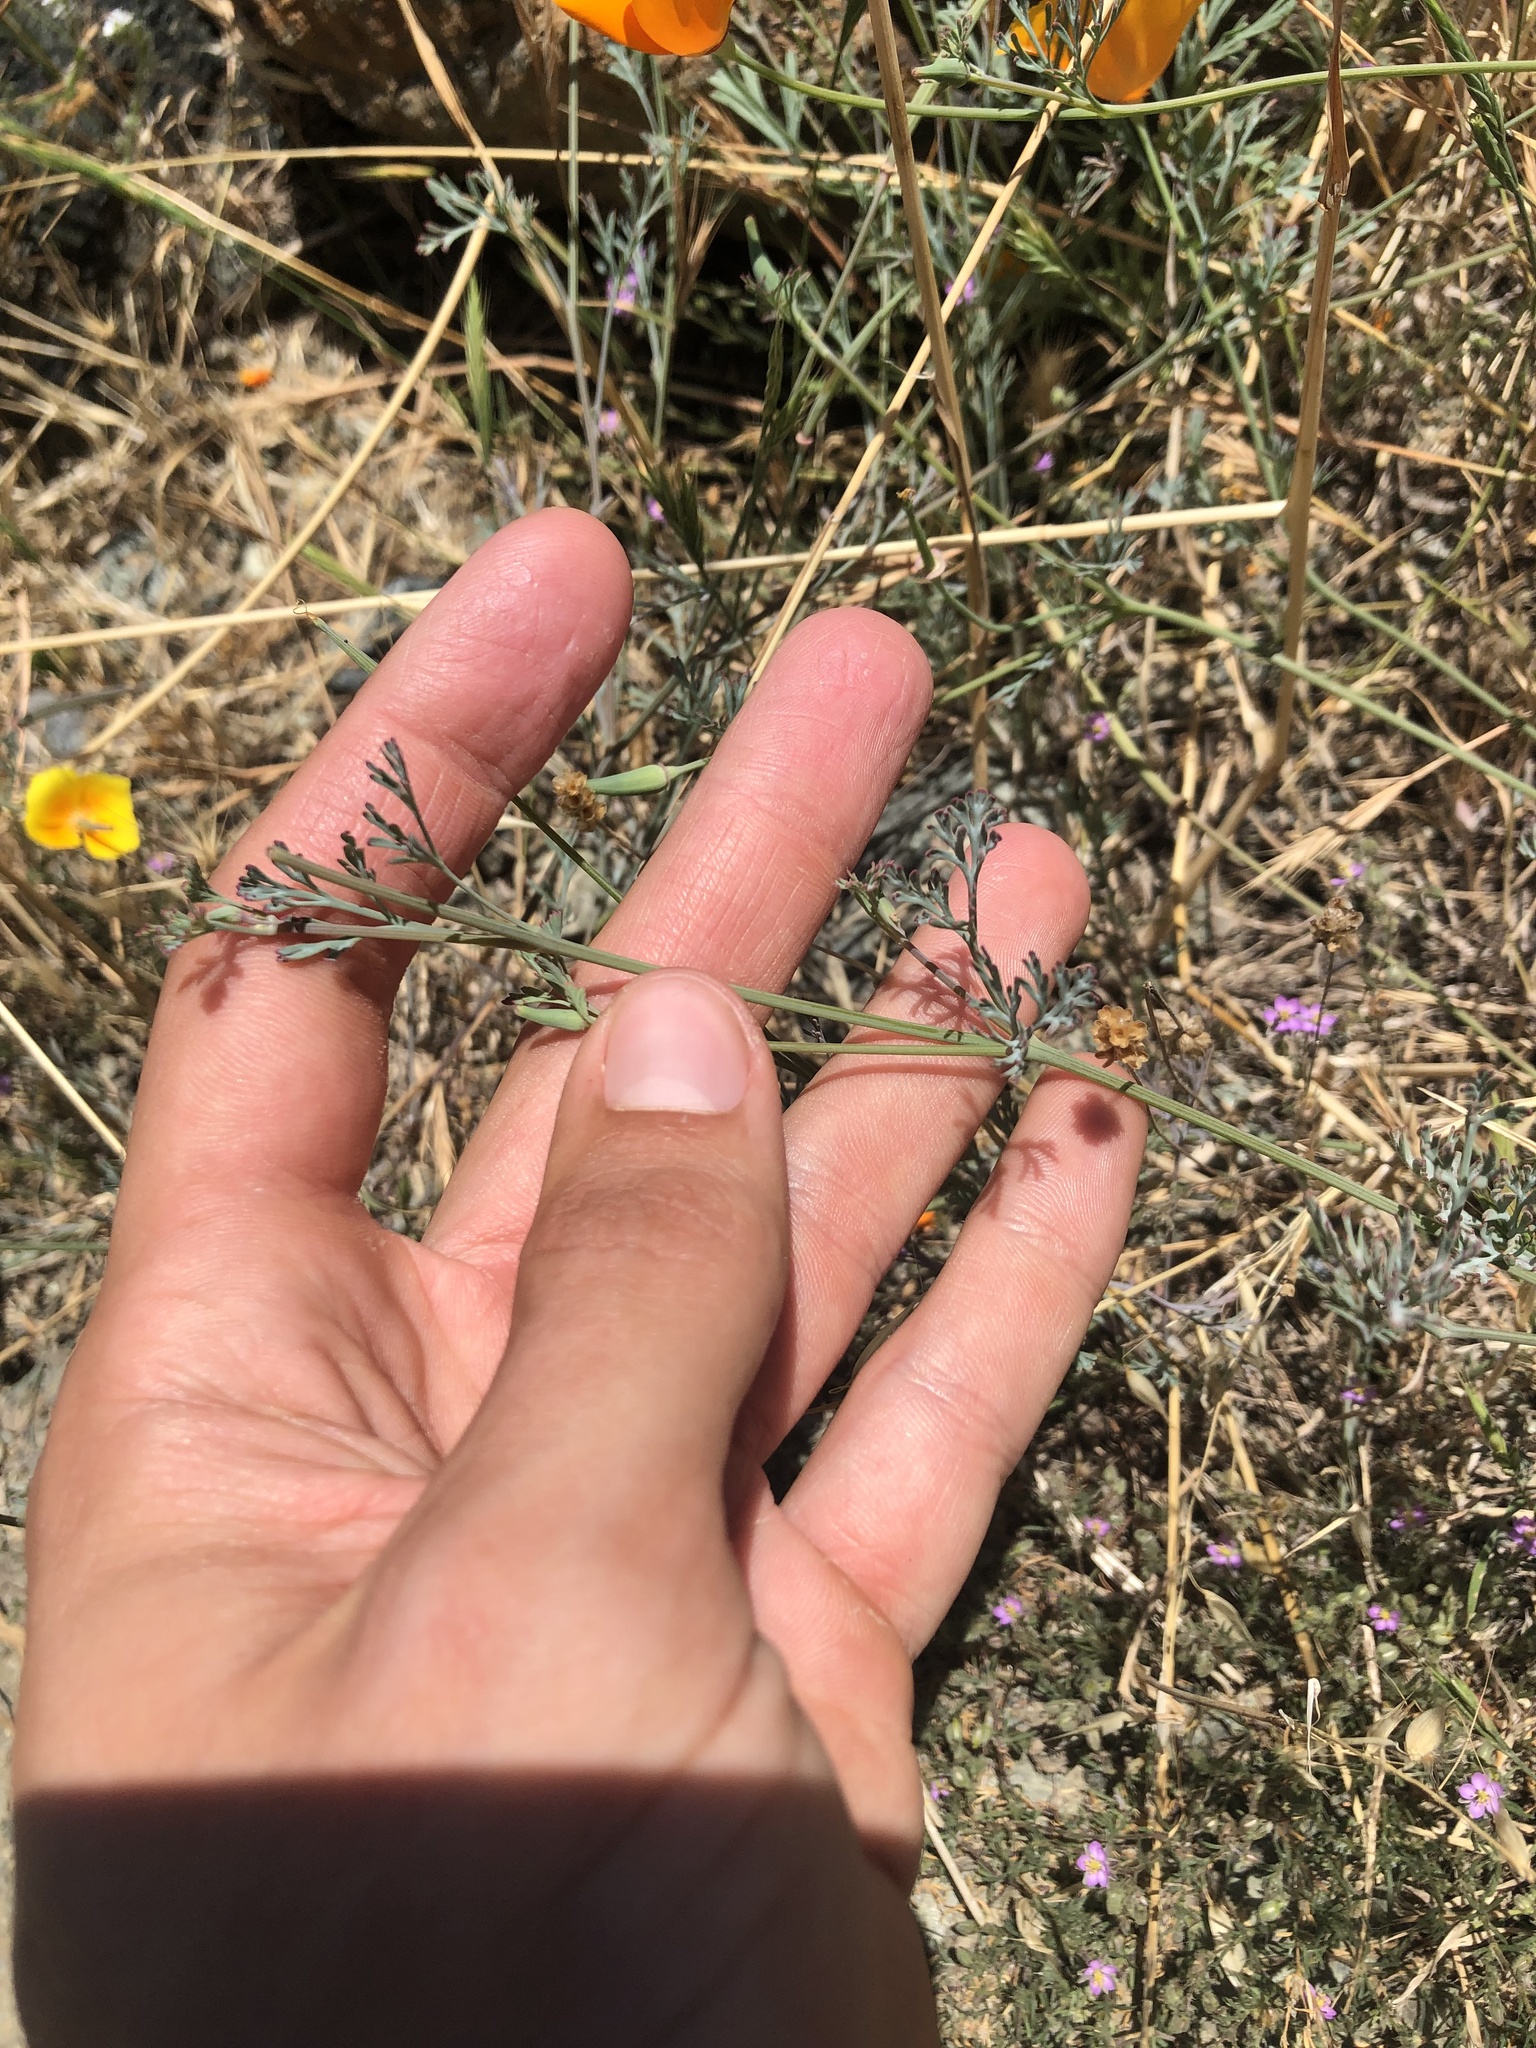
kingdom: Plantae
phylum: Tracheophyta
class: Magnoliopsida
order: Ranunculales
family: Papaveraceae
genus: Eschscholzia
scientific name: Eschscholzia californica
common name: California poppy
